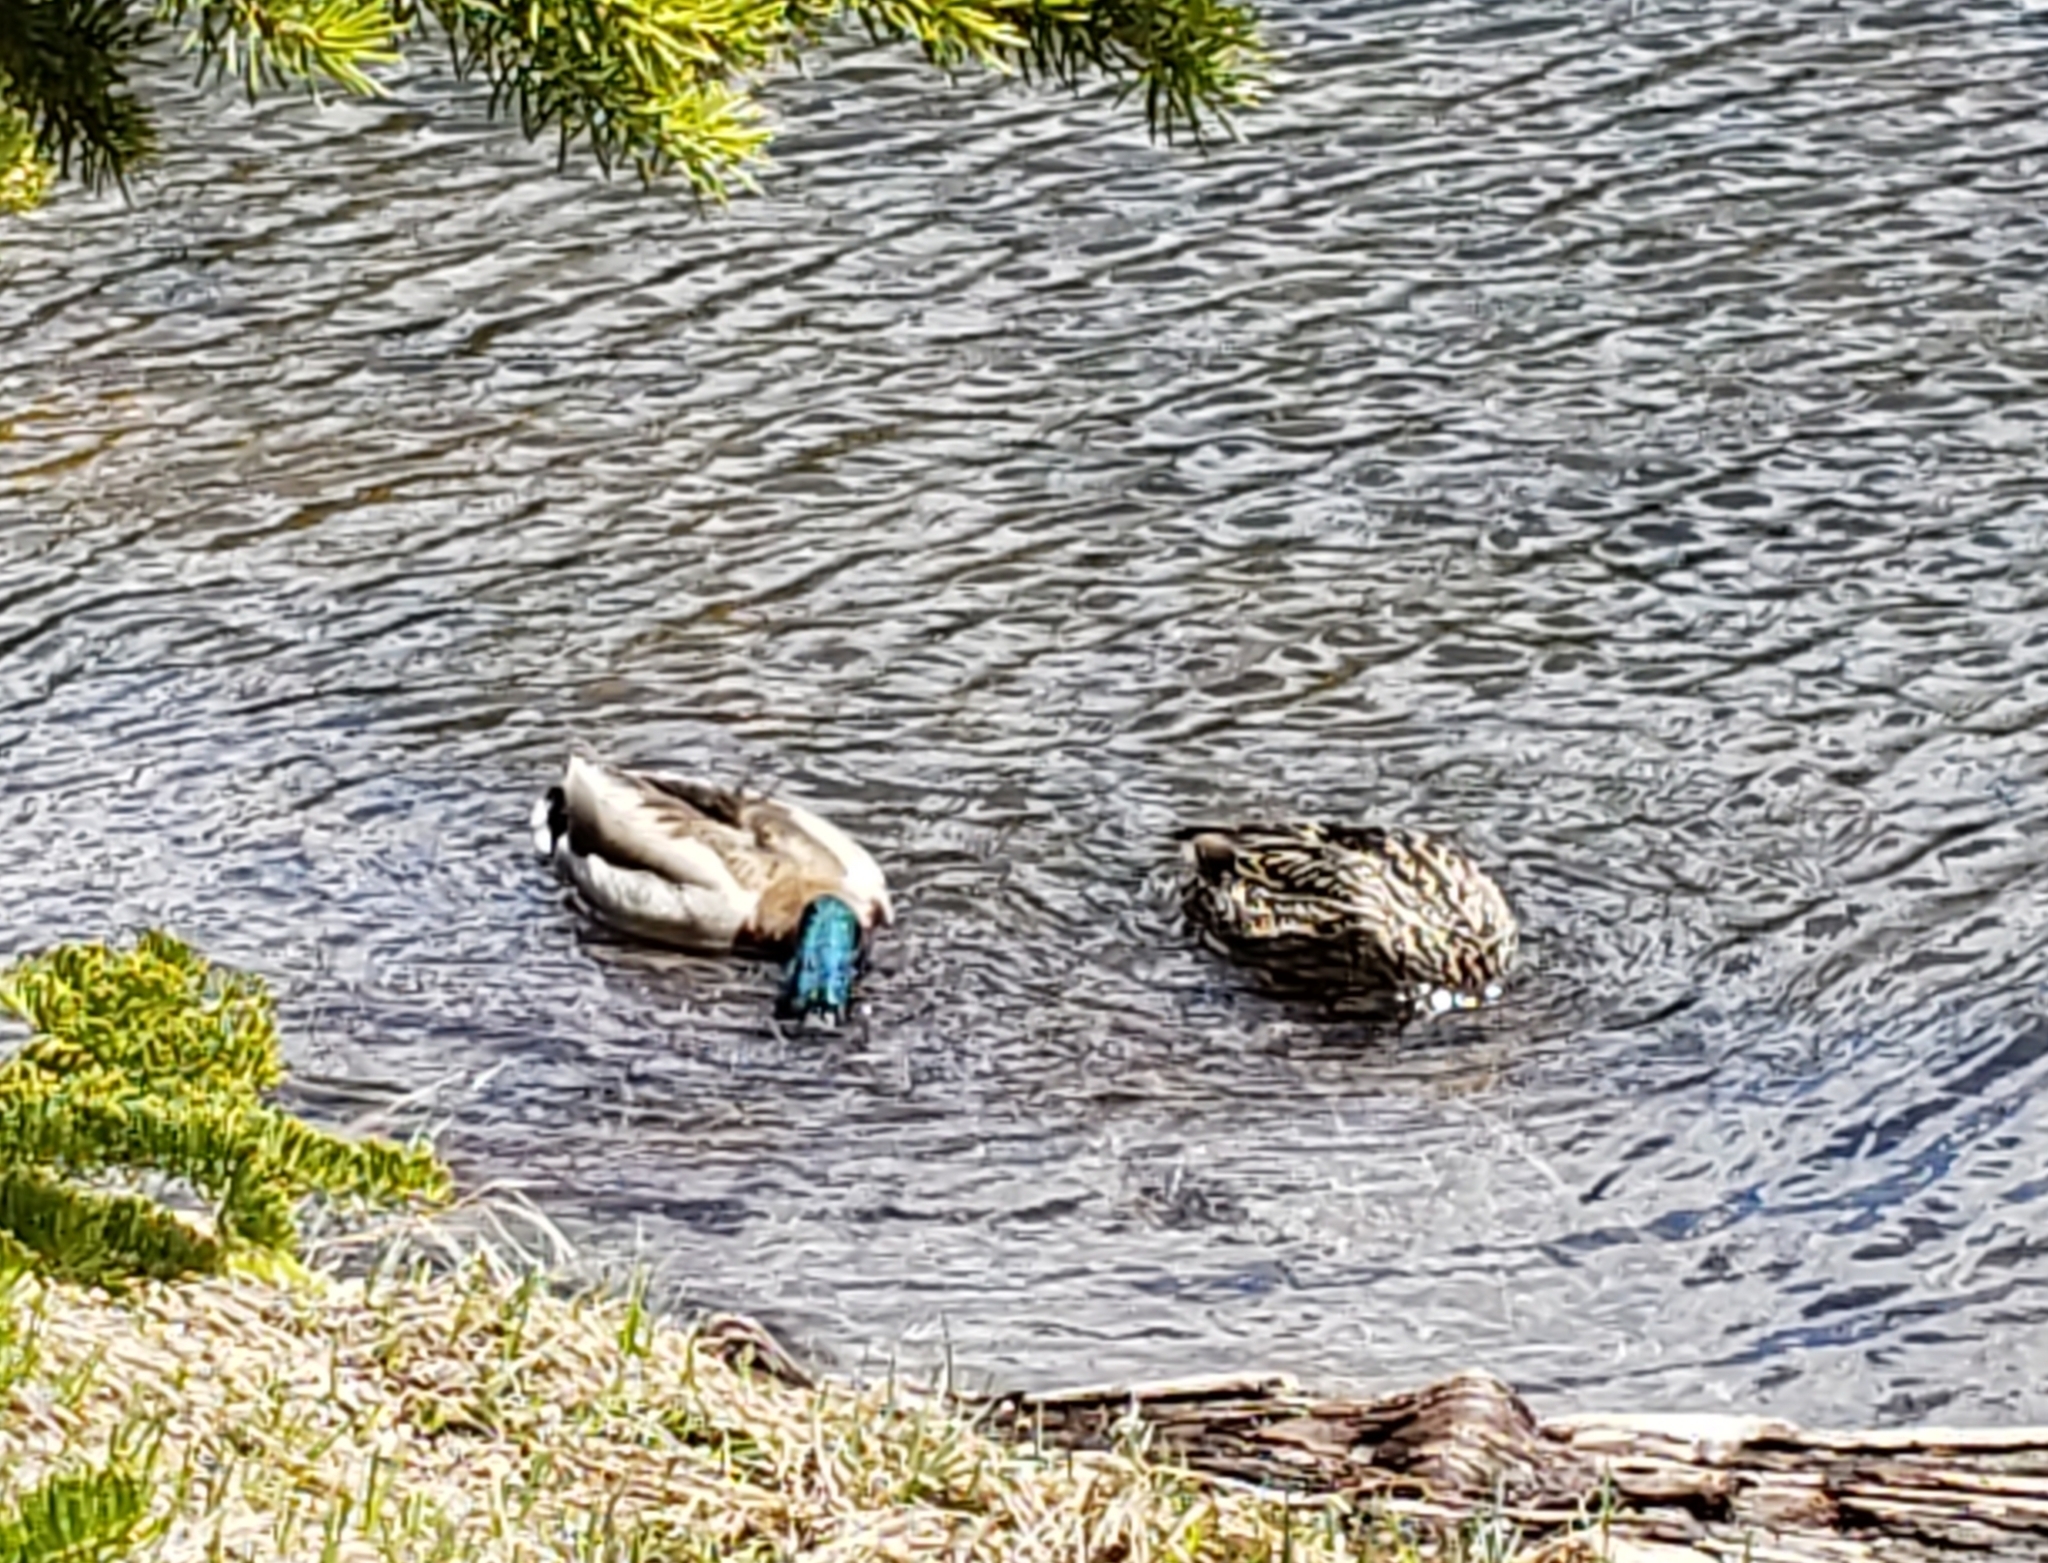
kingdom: Animalia
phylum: Chordata
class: Aves
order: Anseriformes
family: Anatidae
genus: Anas
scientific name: Anas platyrhynchos
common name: Mallard
